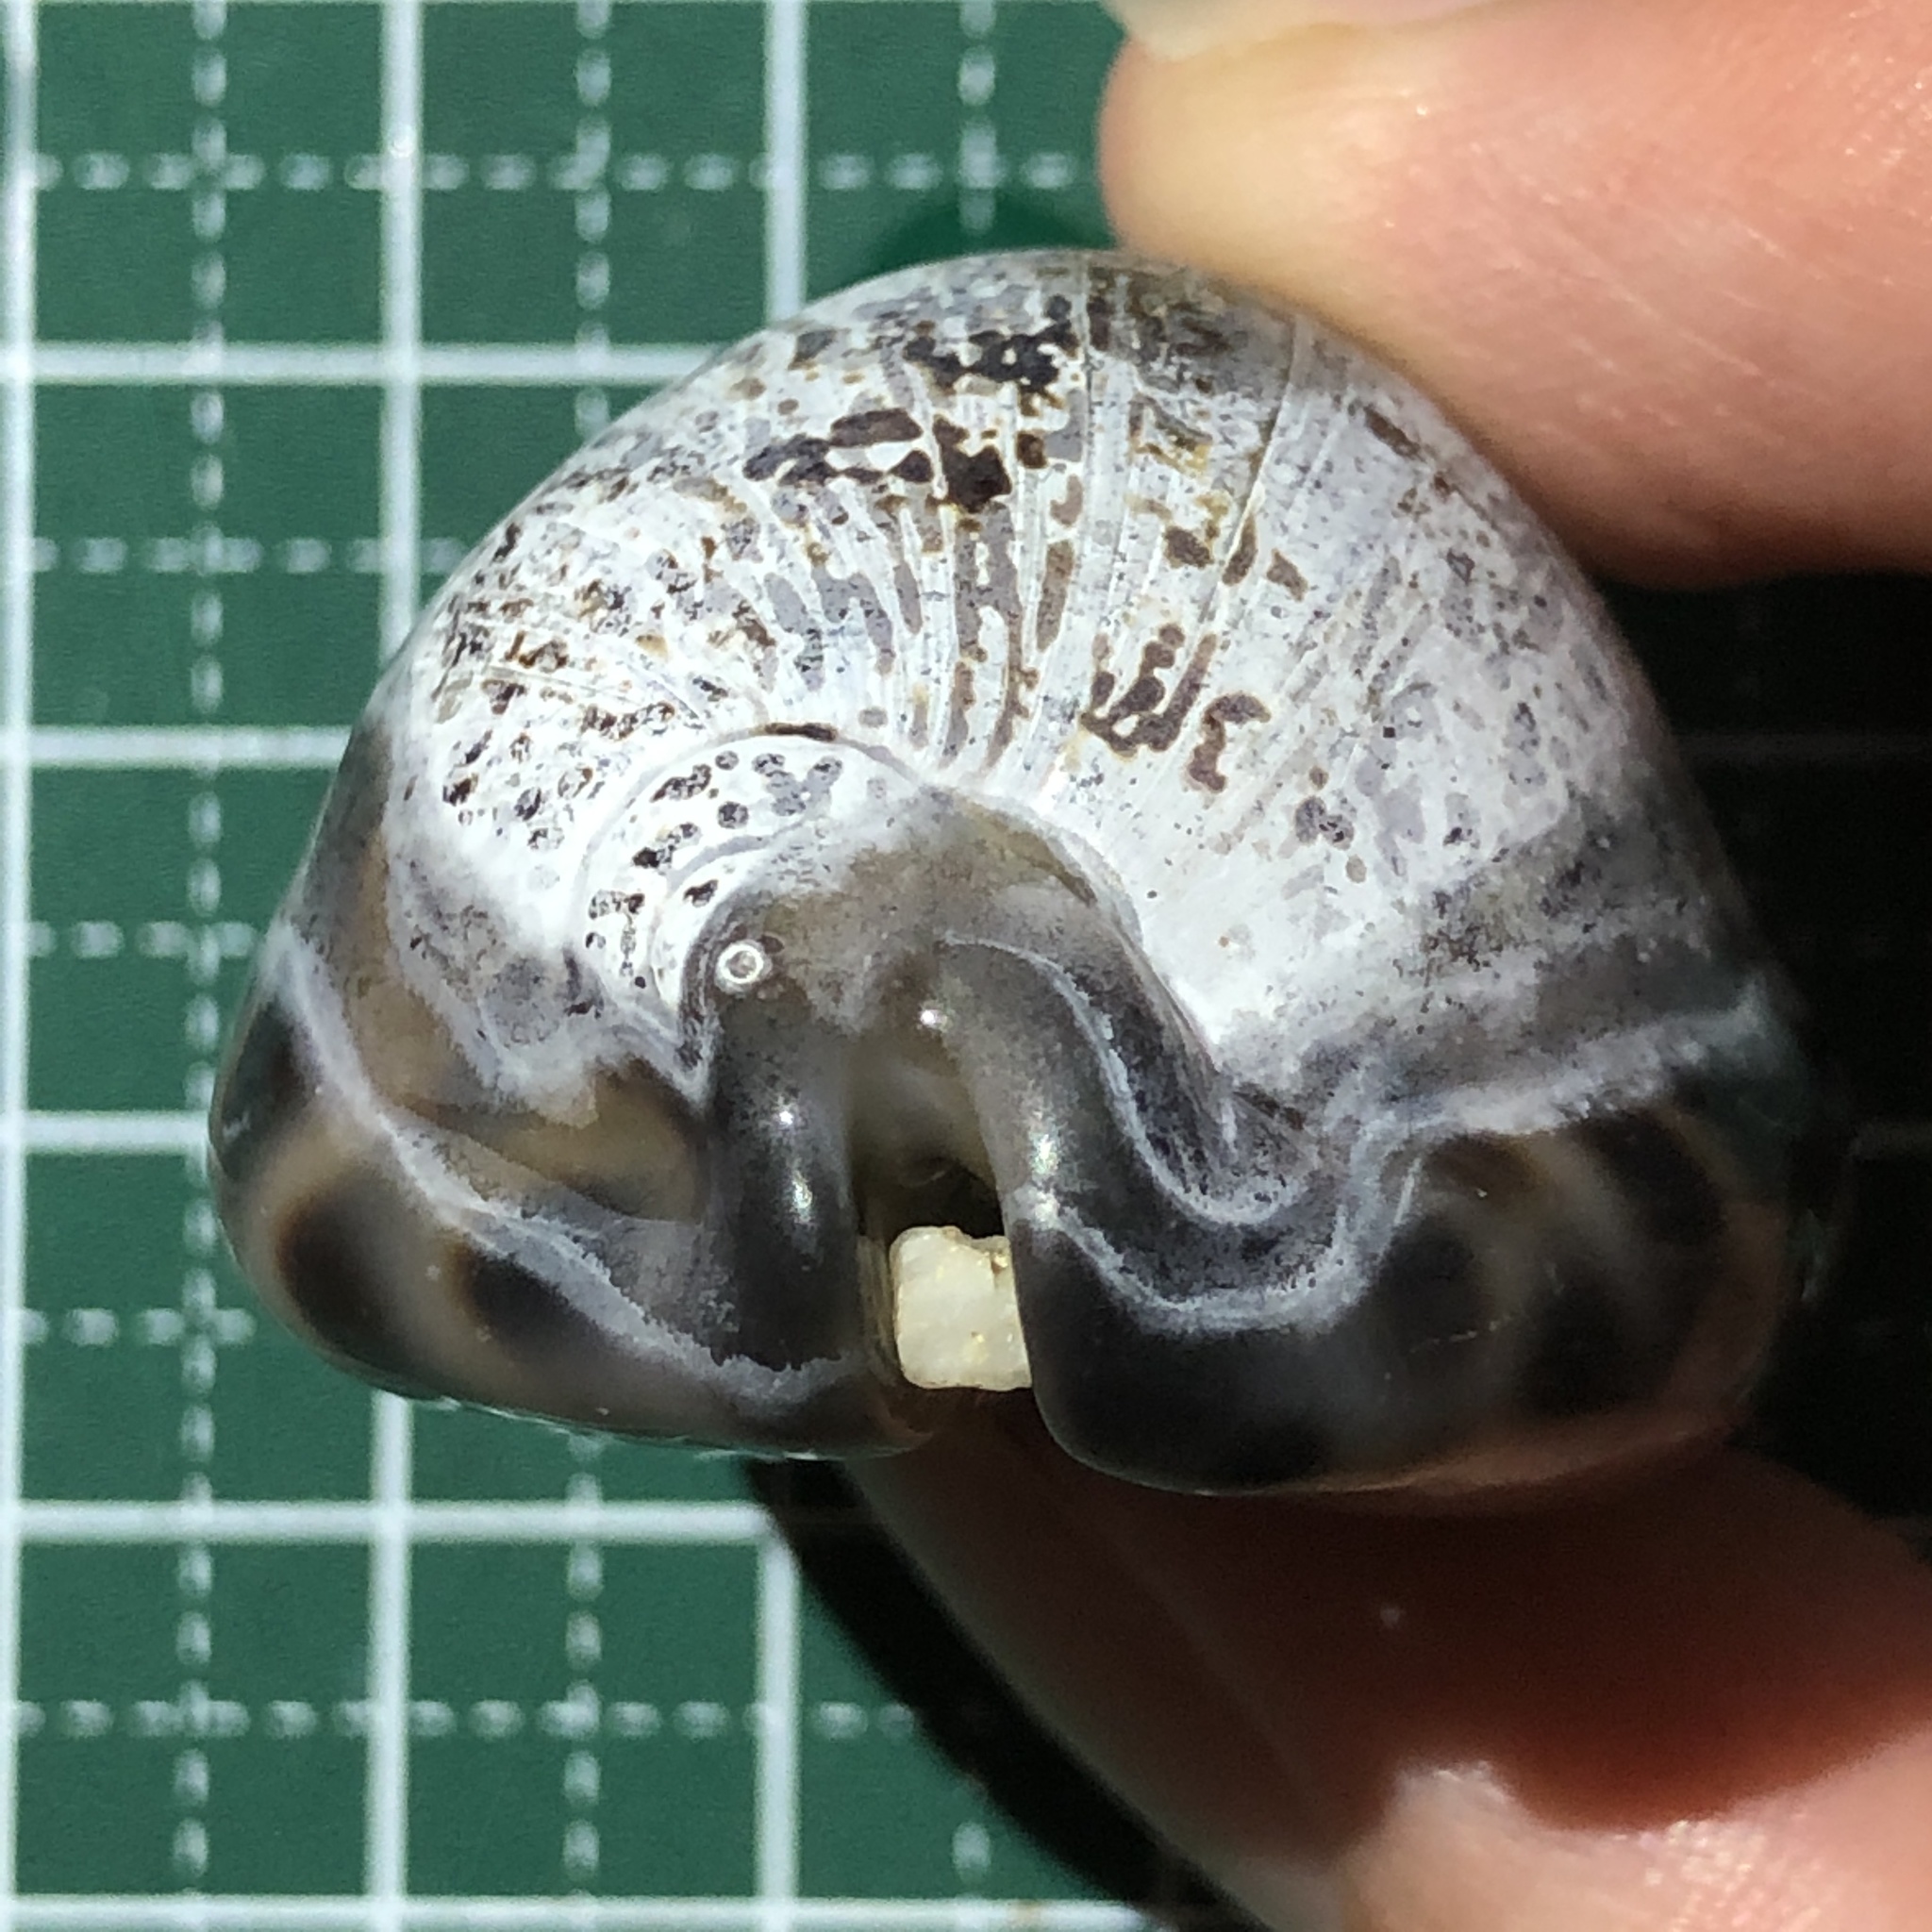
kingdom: Animalia
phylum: Mollusca
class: Gastropoda
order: Littorinimorpha
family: Cypraeidae
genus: Mauritia
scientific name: Mauritia arabica
